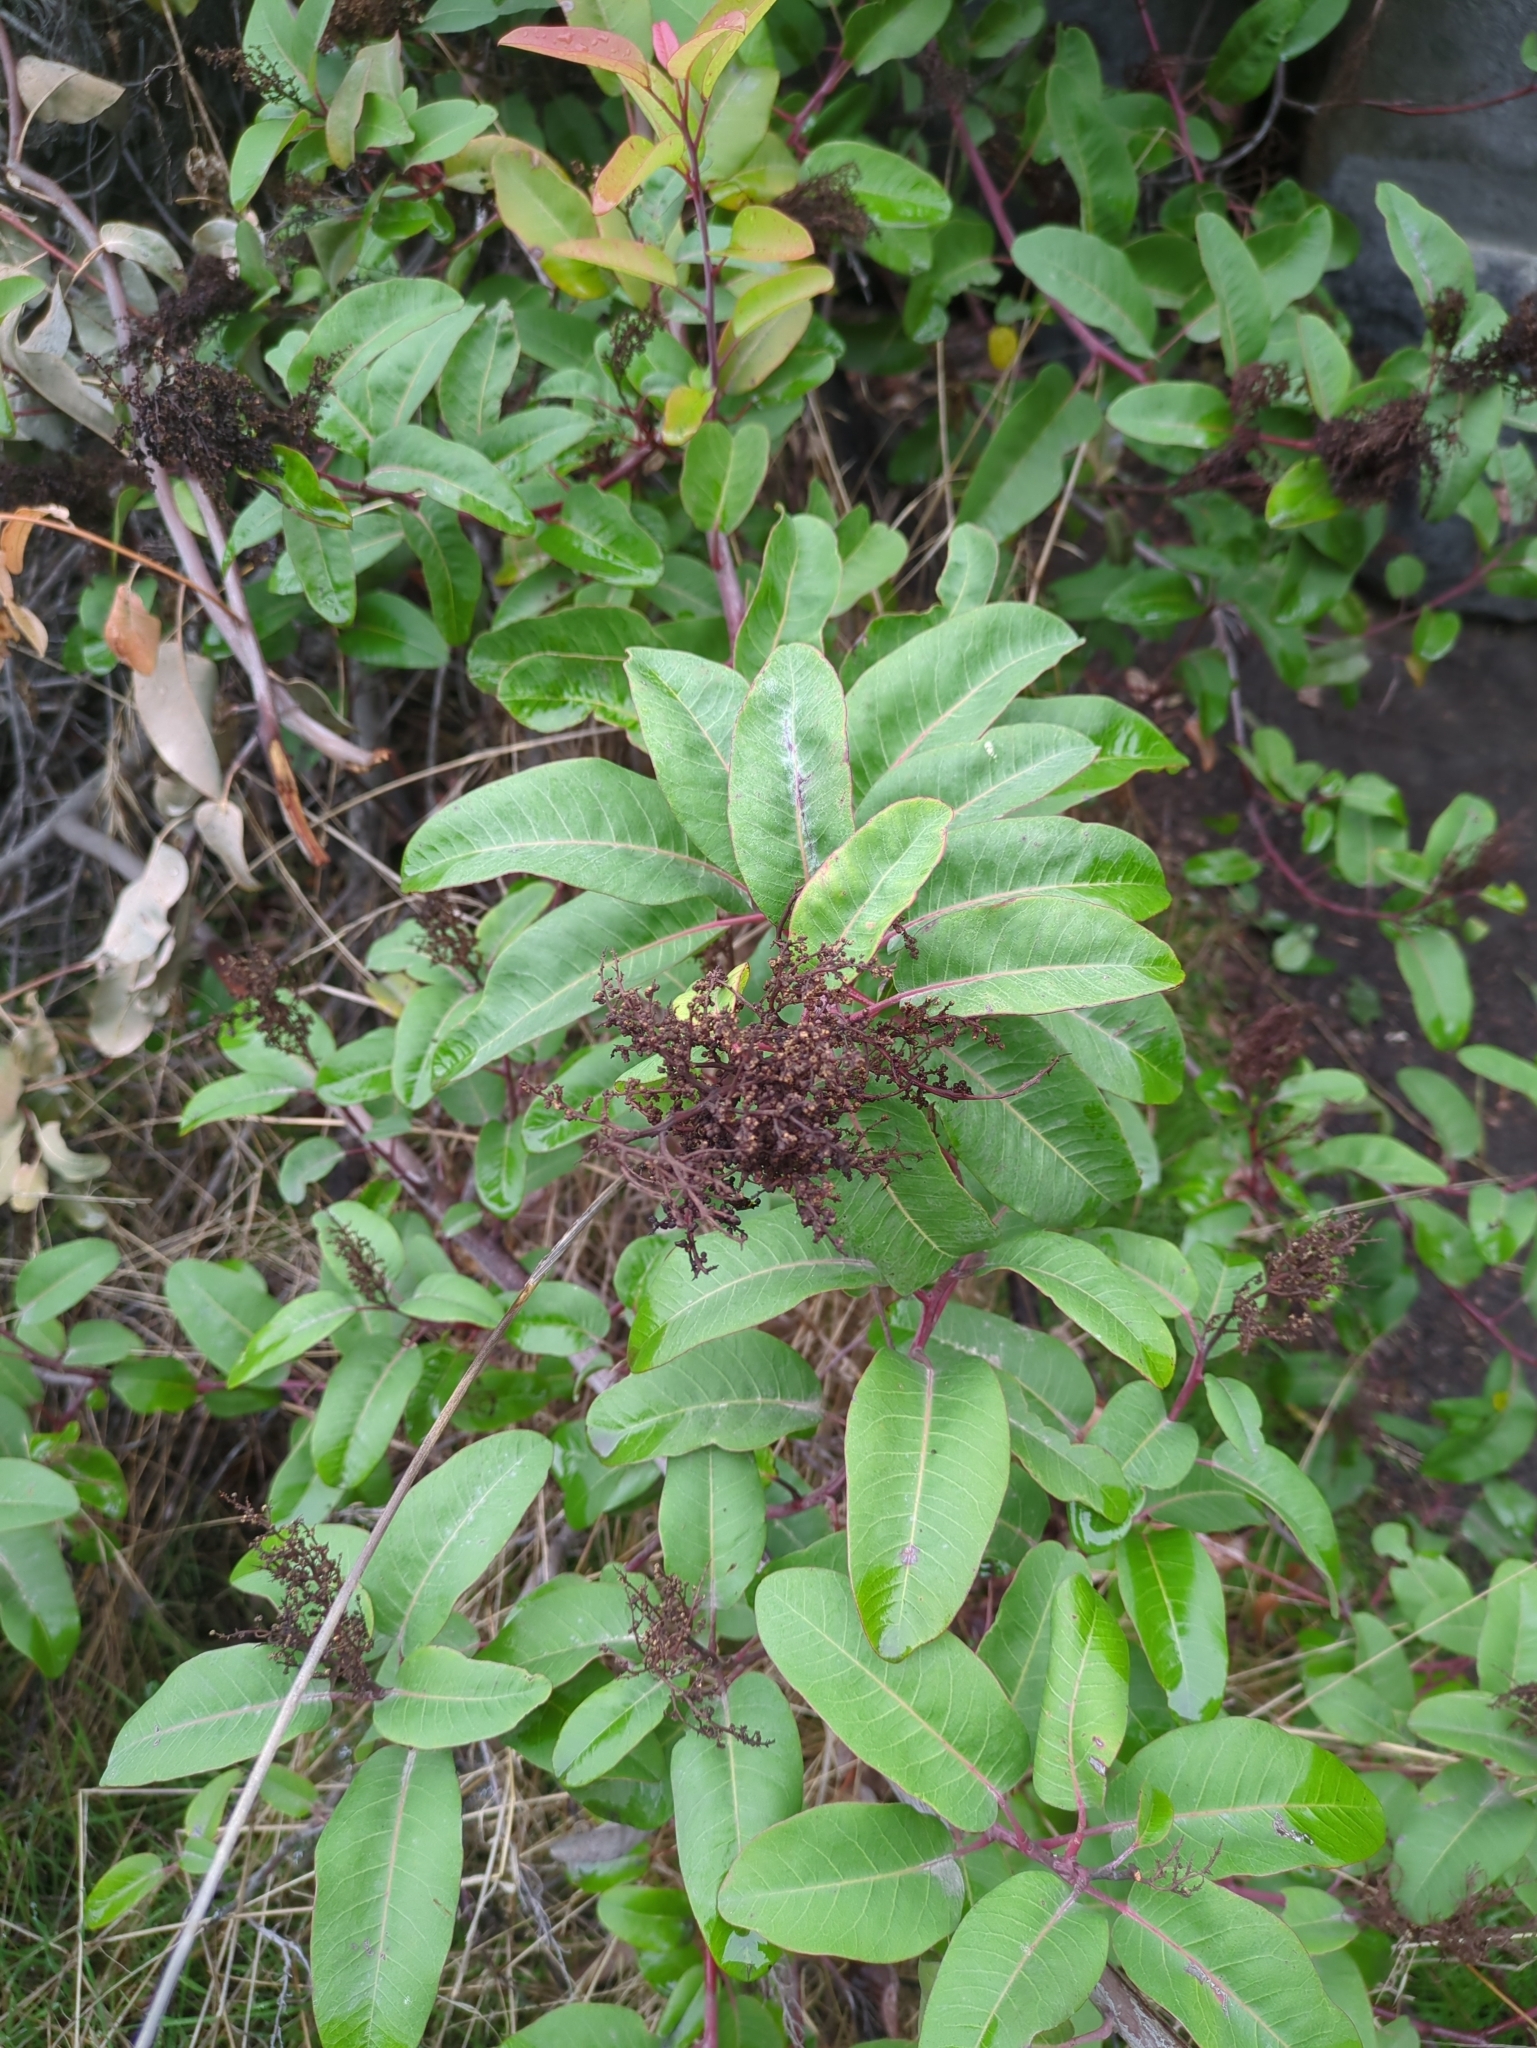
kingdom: Plantae
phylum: Tracheophyta
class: Magnoliopsida
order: Sapindales
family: Anacardiaceae
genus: Malosma
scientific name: Malosma laurina
